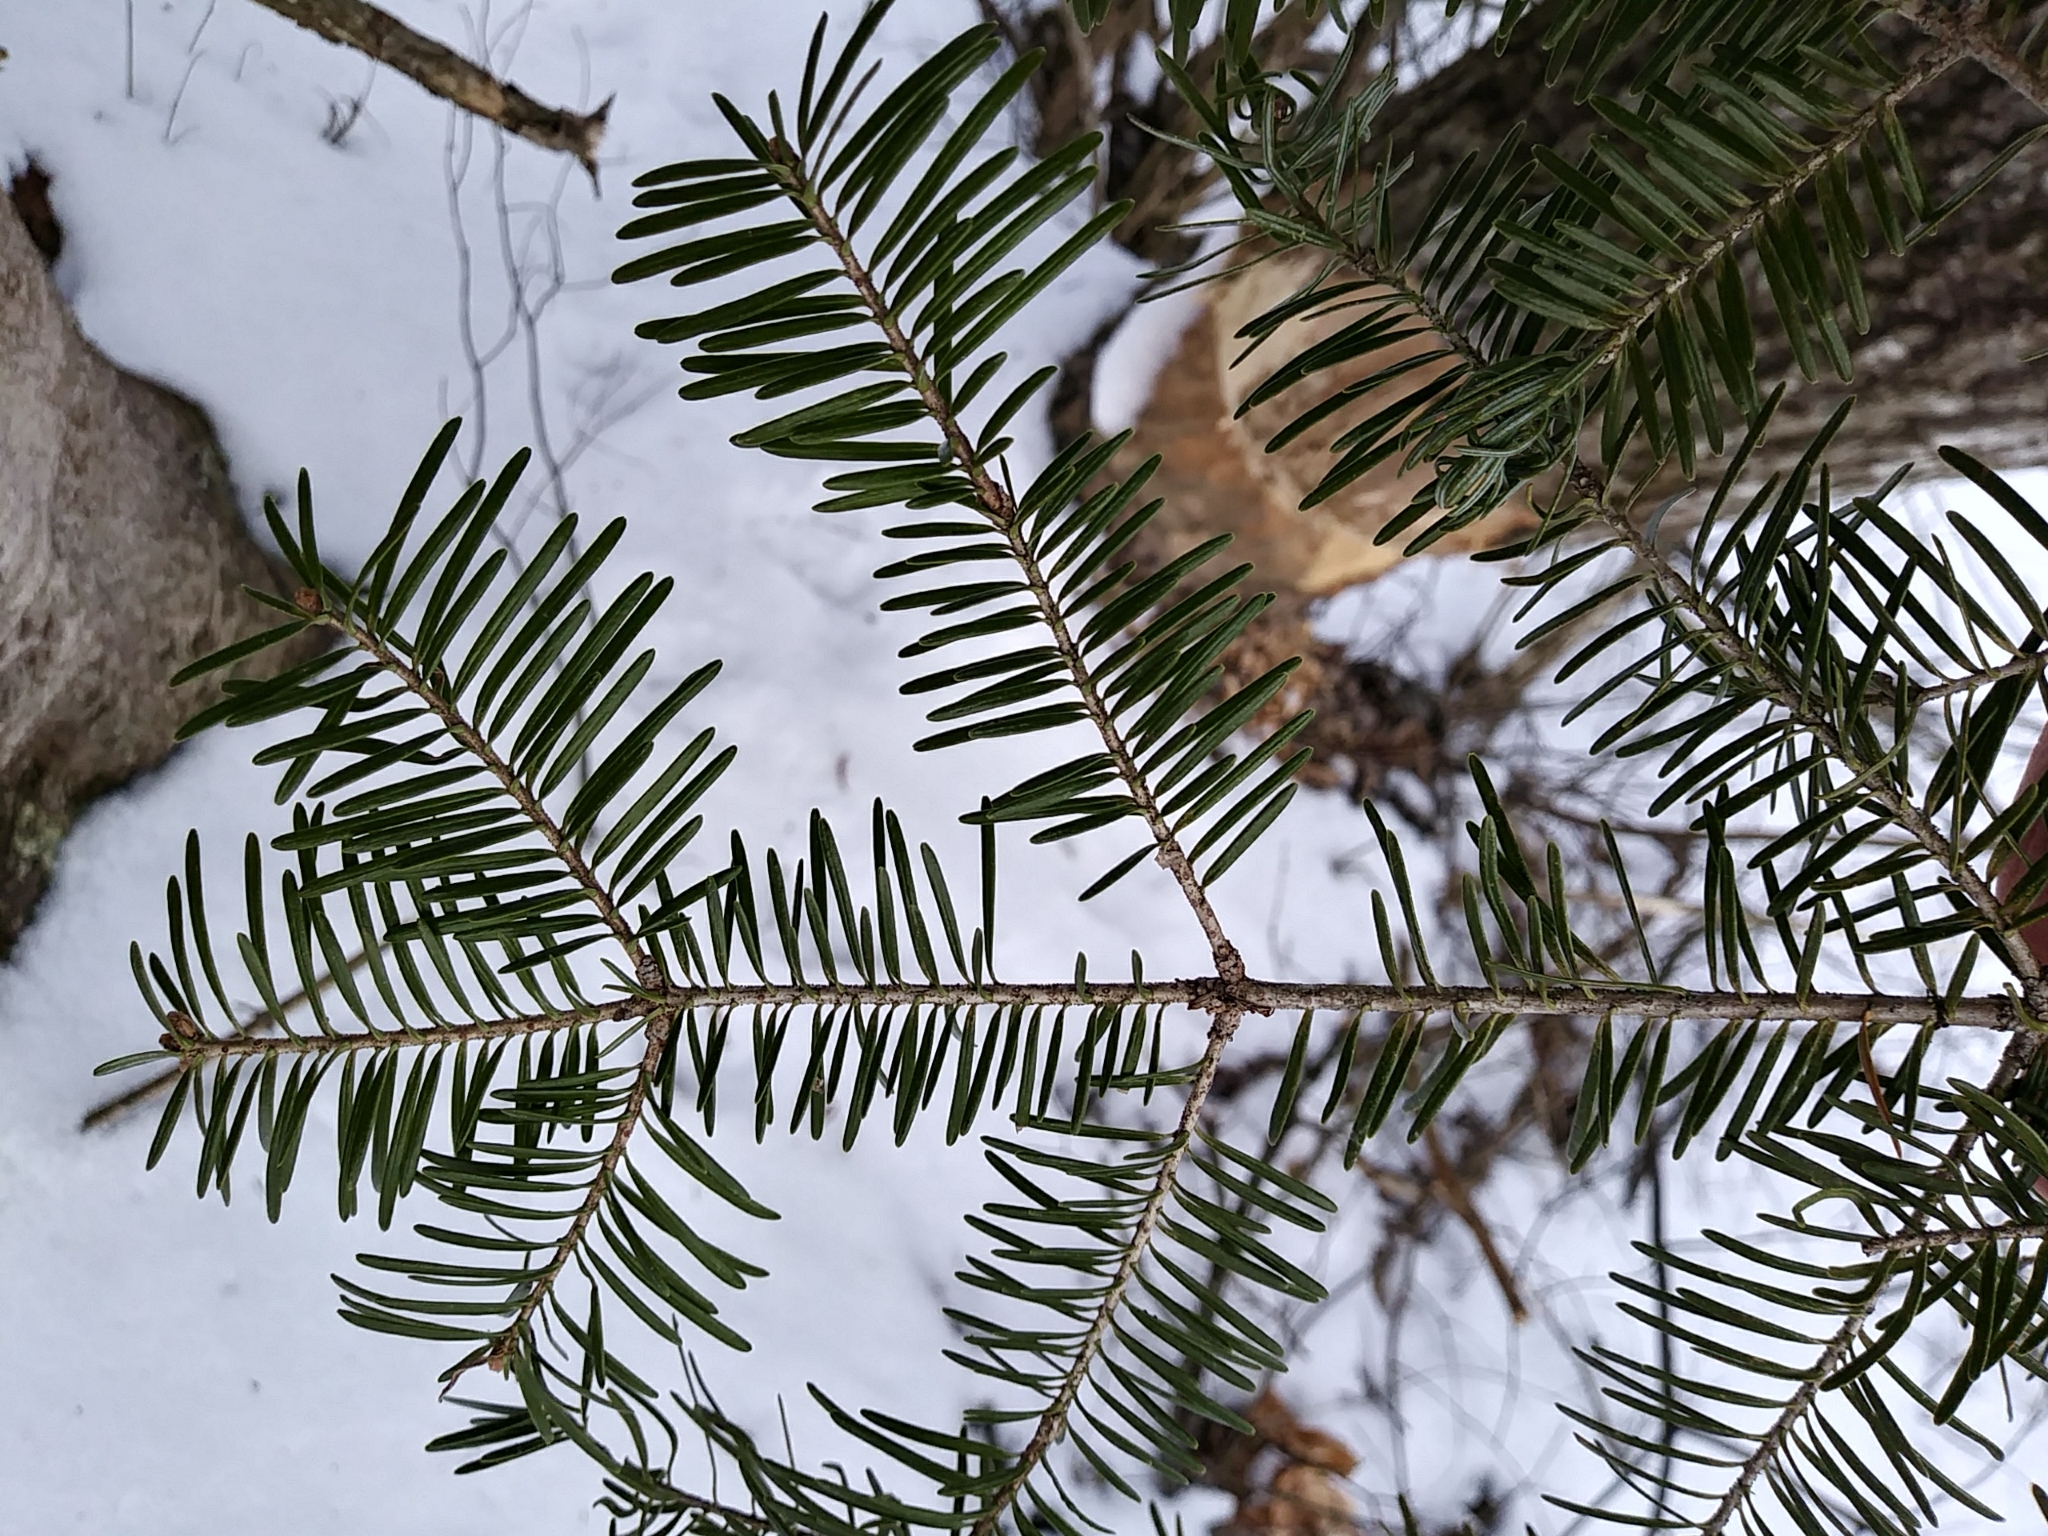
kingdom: Plantae
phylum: Tracheophyta
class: Pinopsida
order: Pinales
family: Pinaceae
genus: Abies
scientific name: Abies balsamea
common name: Balsam fir
